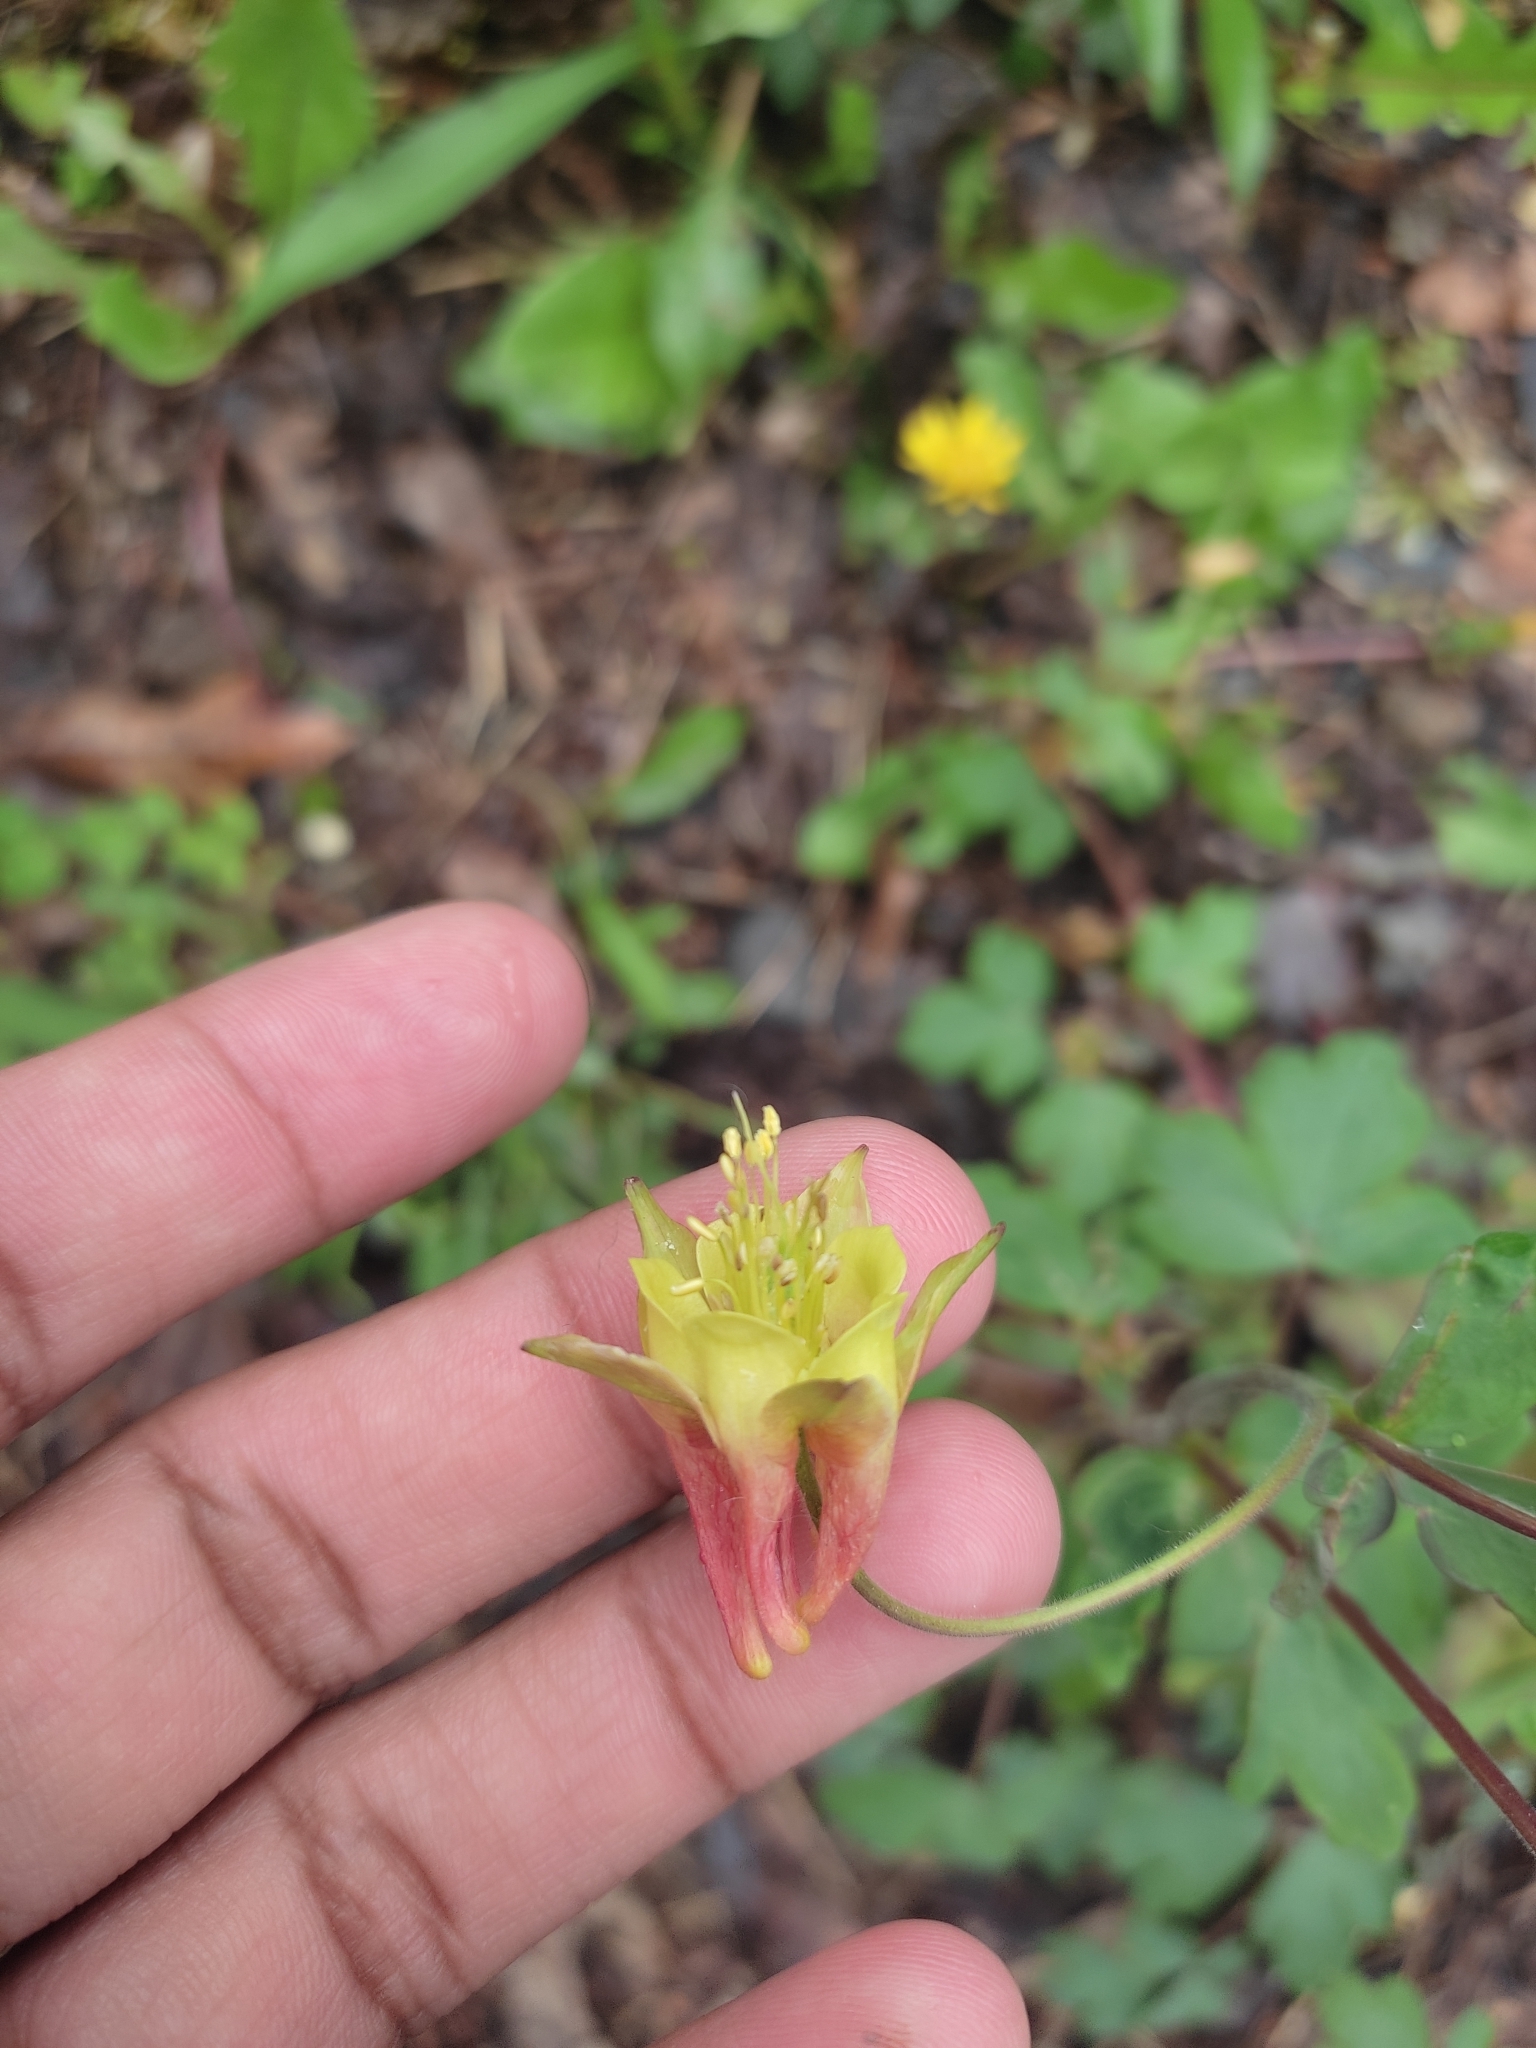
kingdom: Plantae
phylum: Tracheophyta
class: Magnoliopsida
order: Ranunculales
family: Ranunculaceae
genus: Aquilegia
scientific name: Aquilegia canadensis
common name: American columbine
